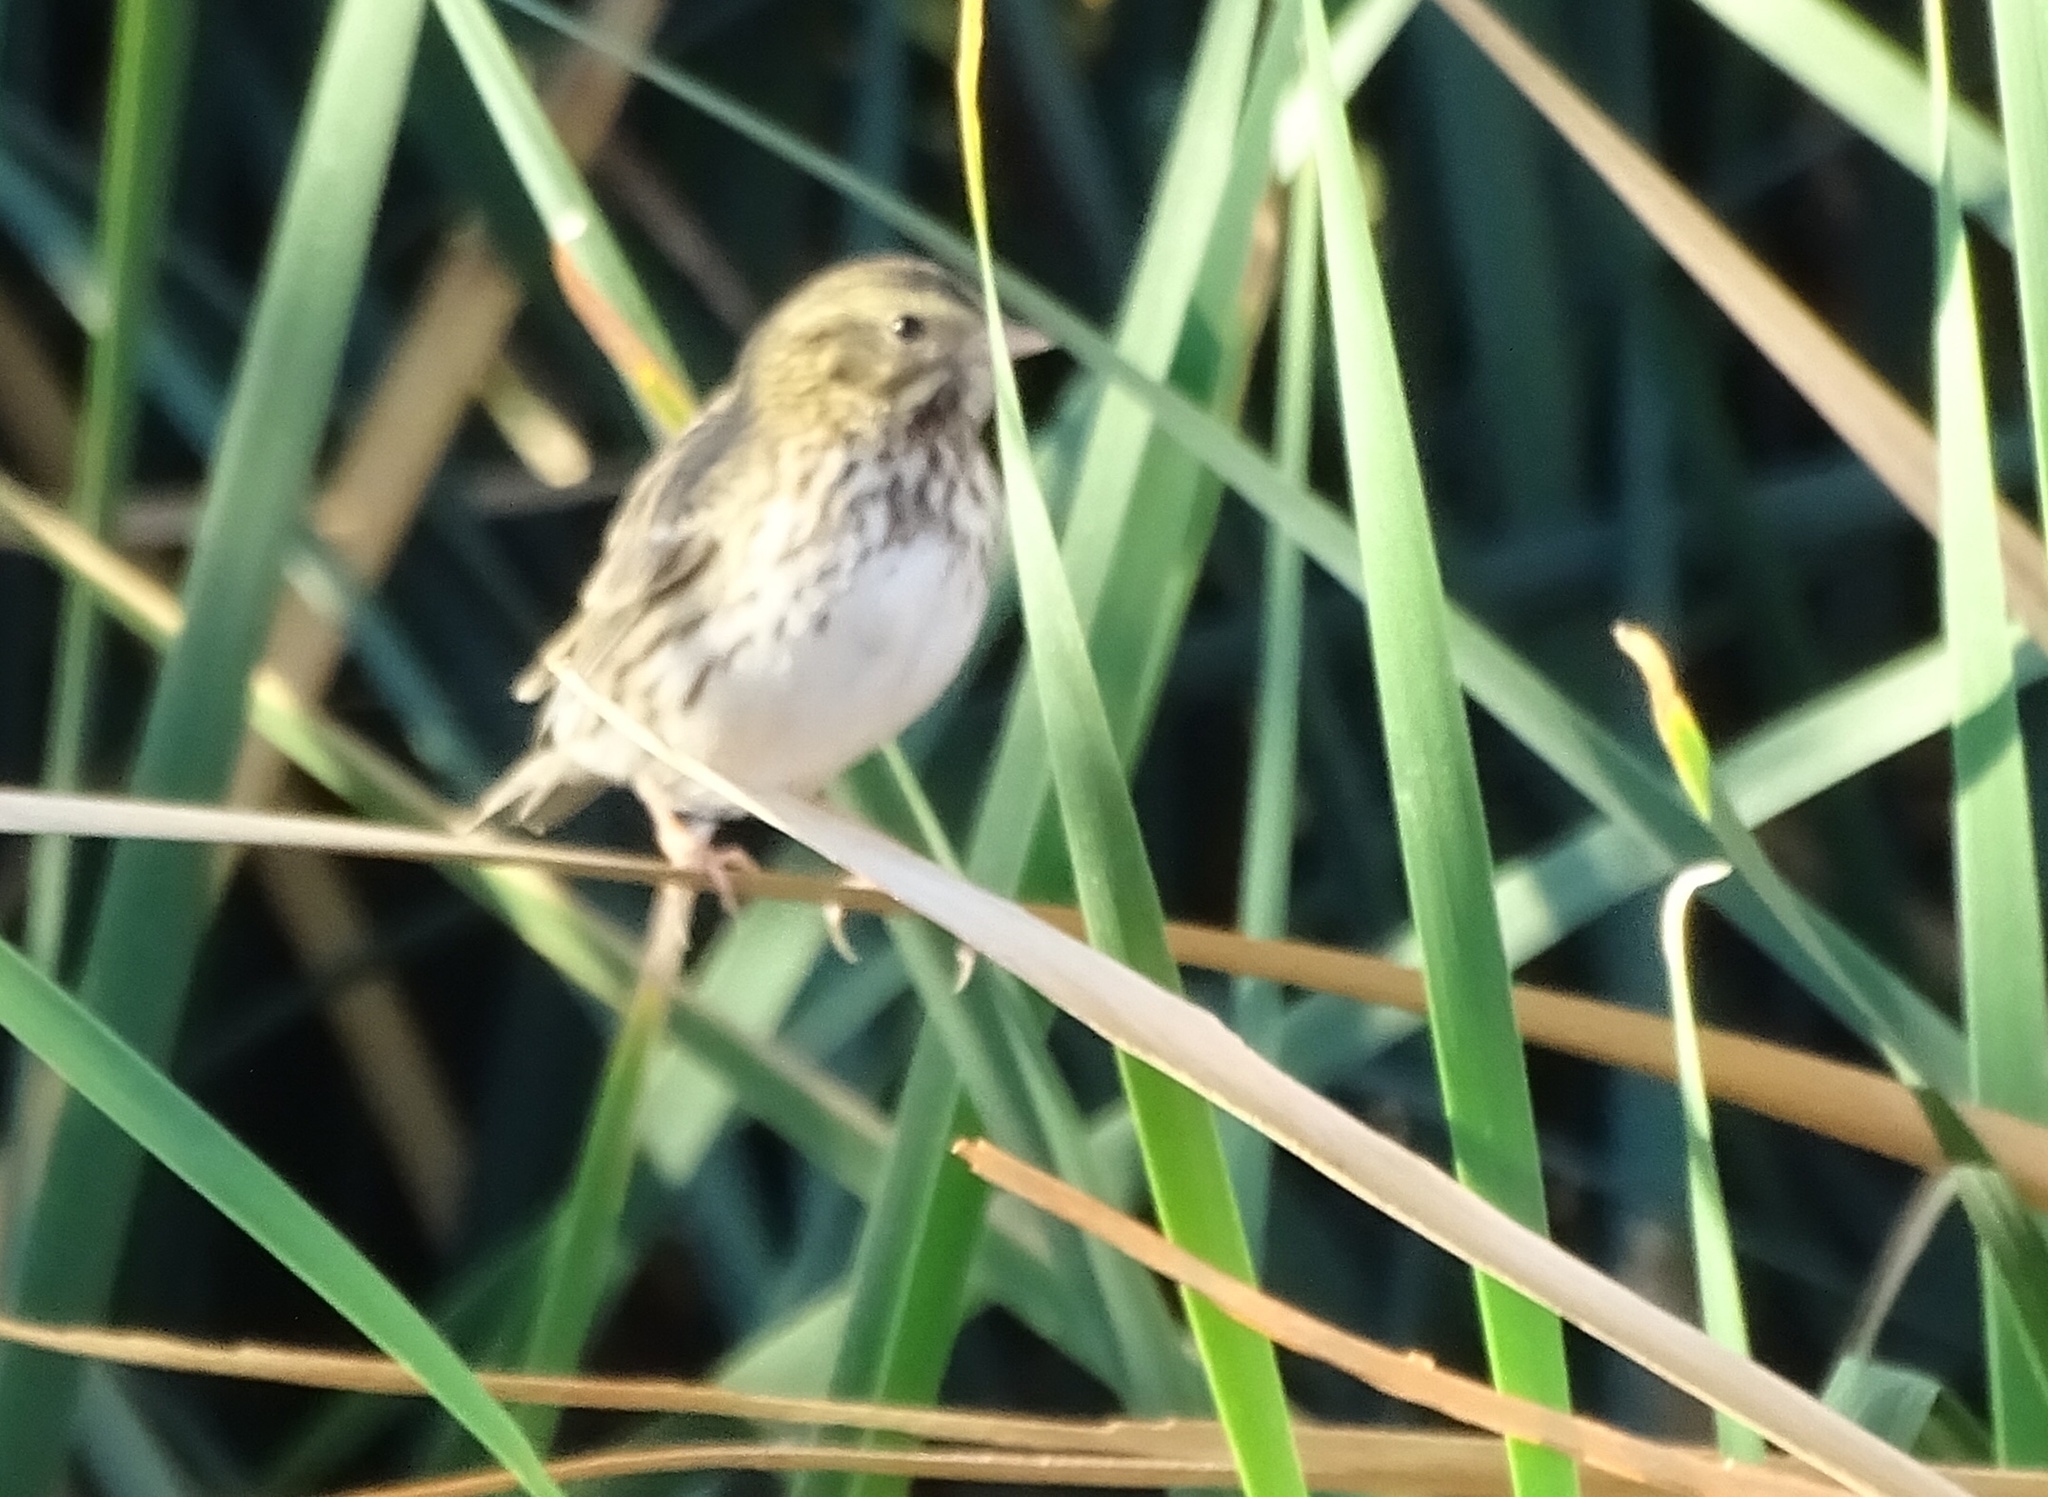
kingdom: Animalia
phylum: Chordata
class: Aves
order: Passeriformes
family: Passerellidae
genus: Passerculus
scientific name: Passerculus sandwichensis
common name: Savannah sparrow
